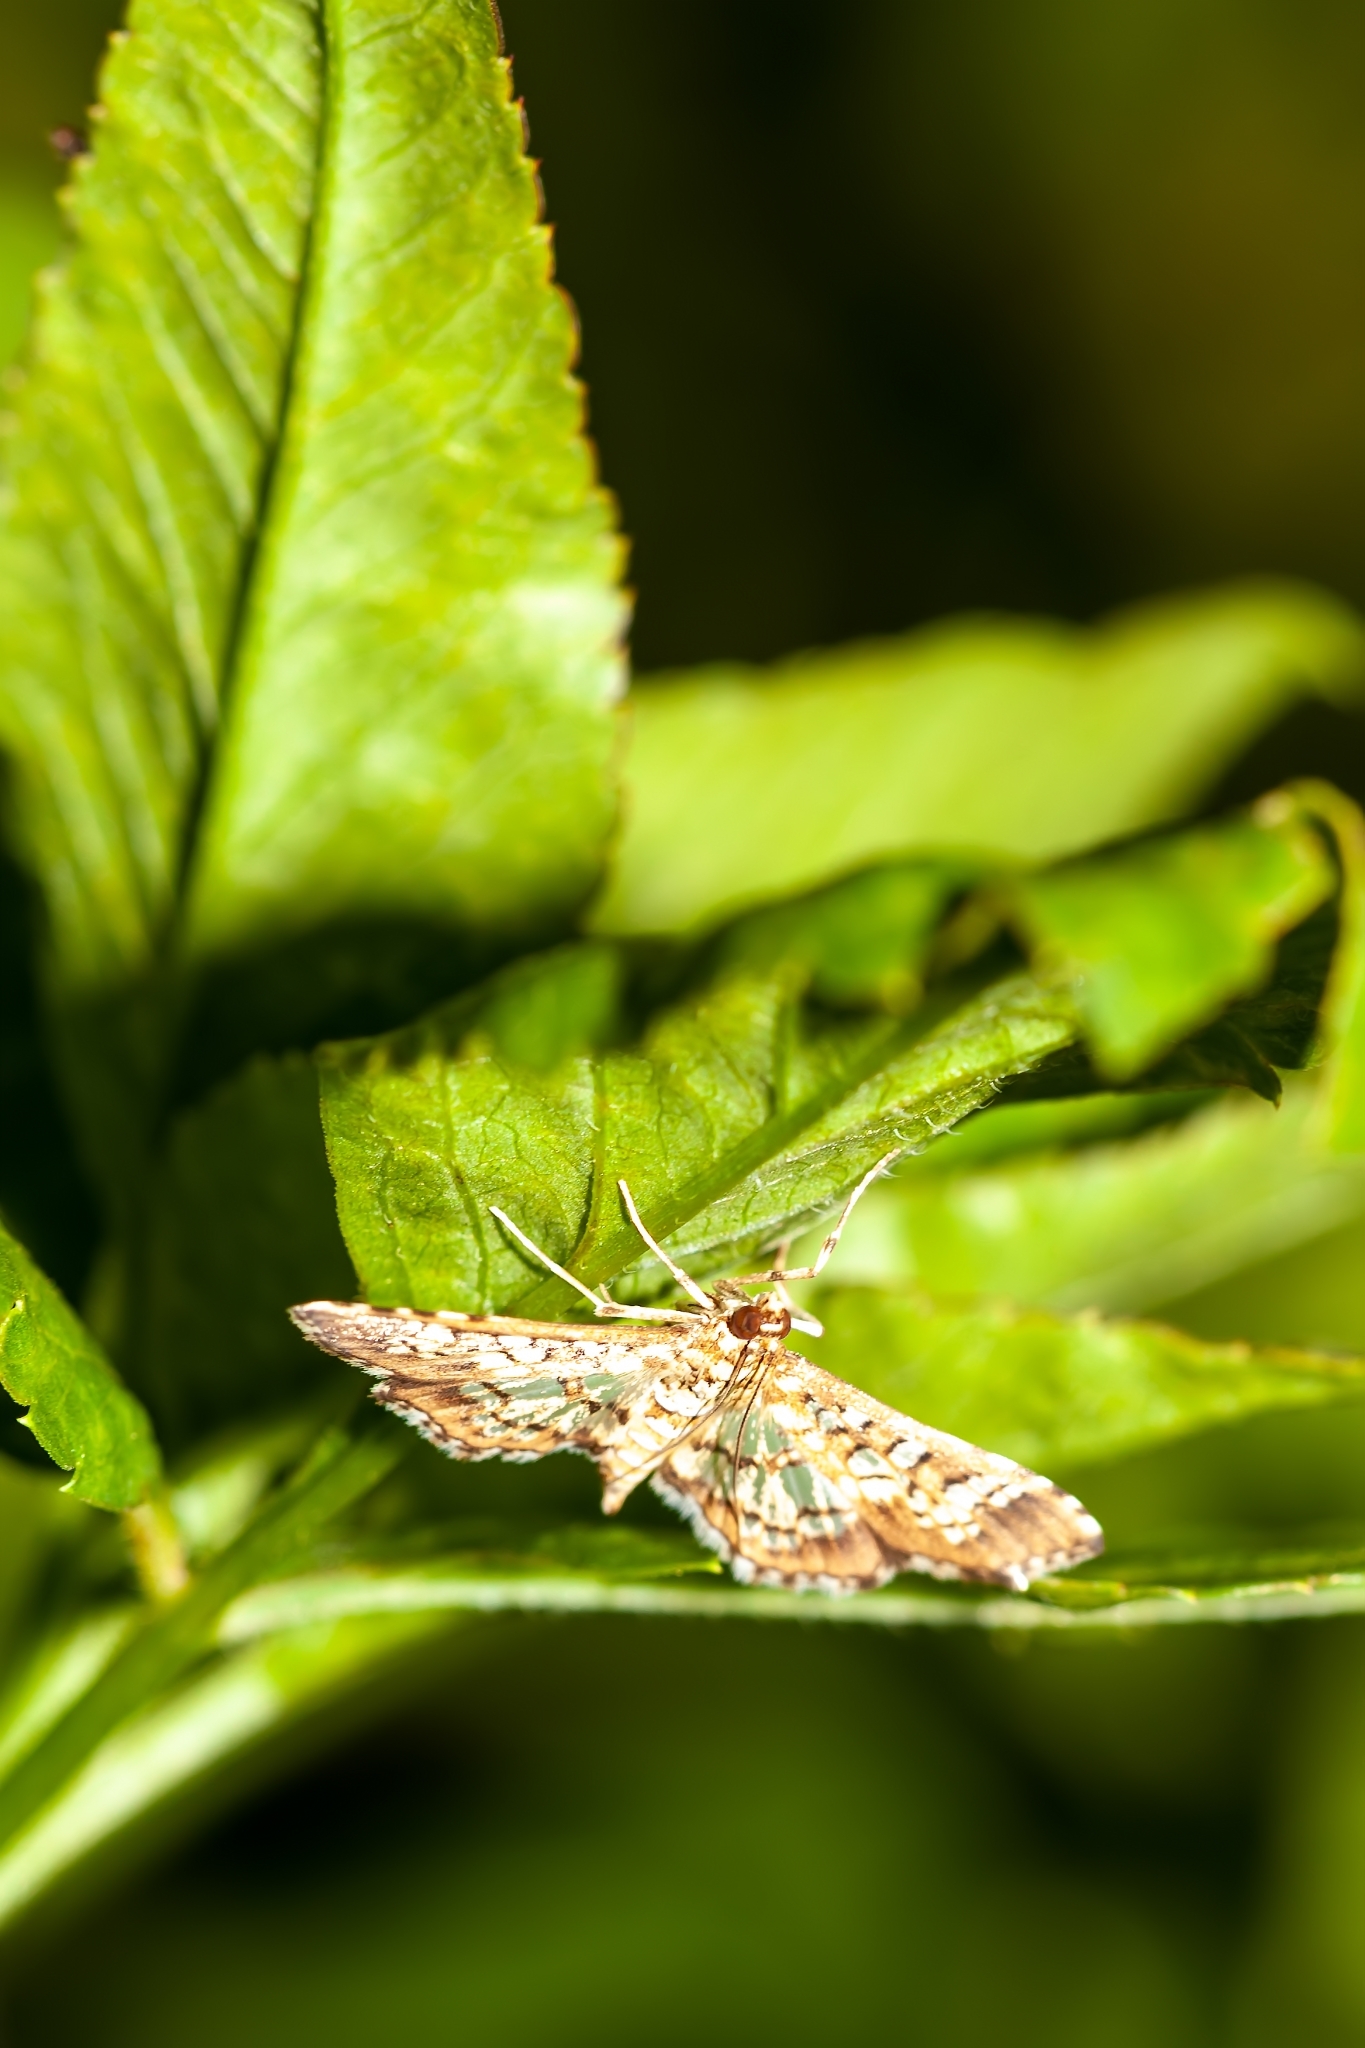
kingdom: Animalia
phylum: Arthropoda
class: Insecta
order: Lepidoptera
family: Crambidae
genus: Samea
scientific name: Samea ecclesialis
